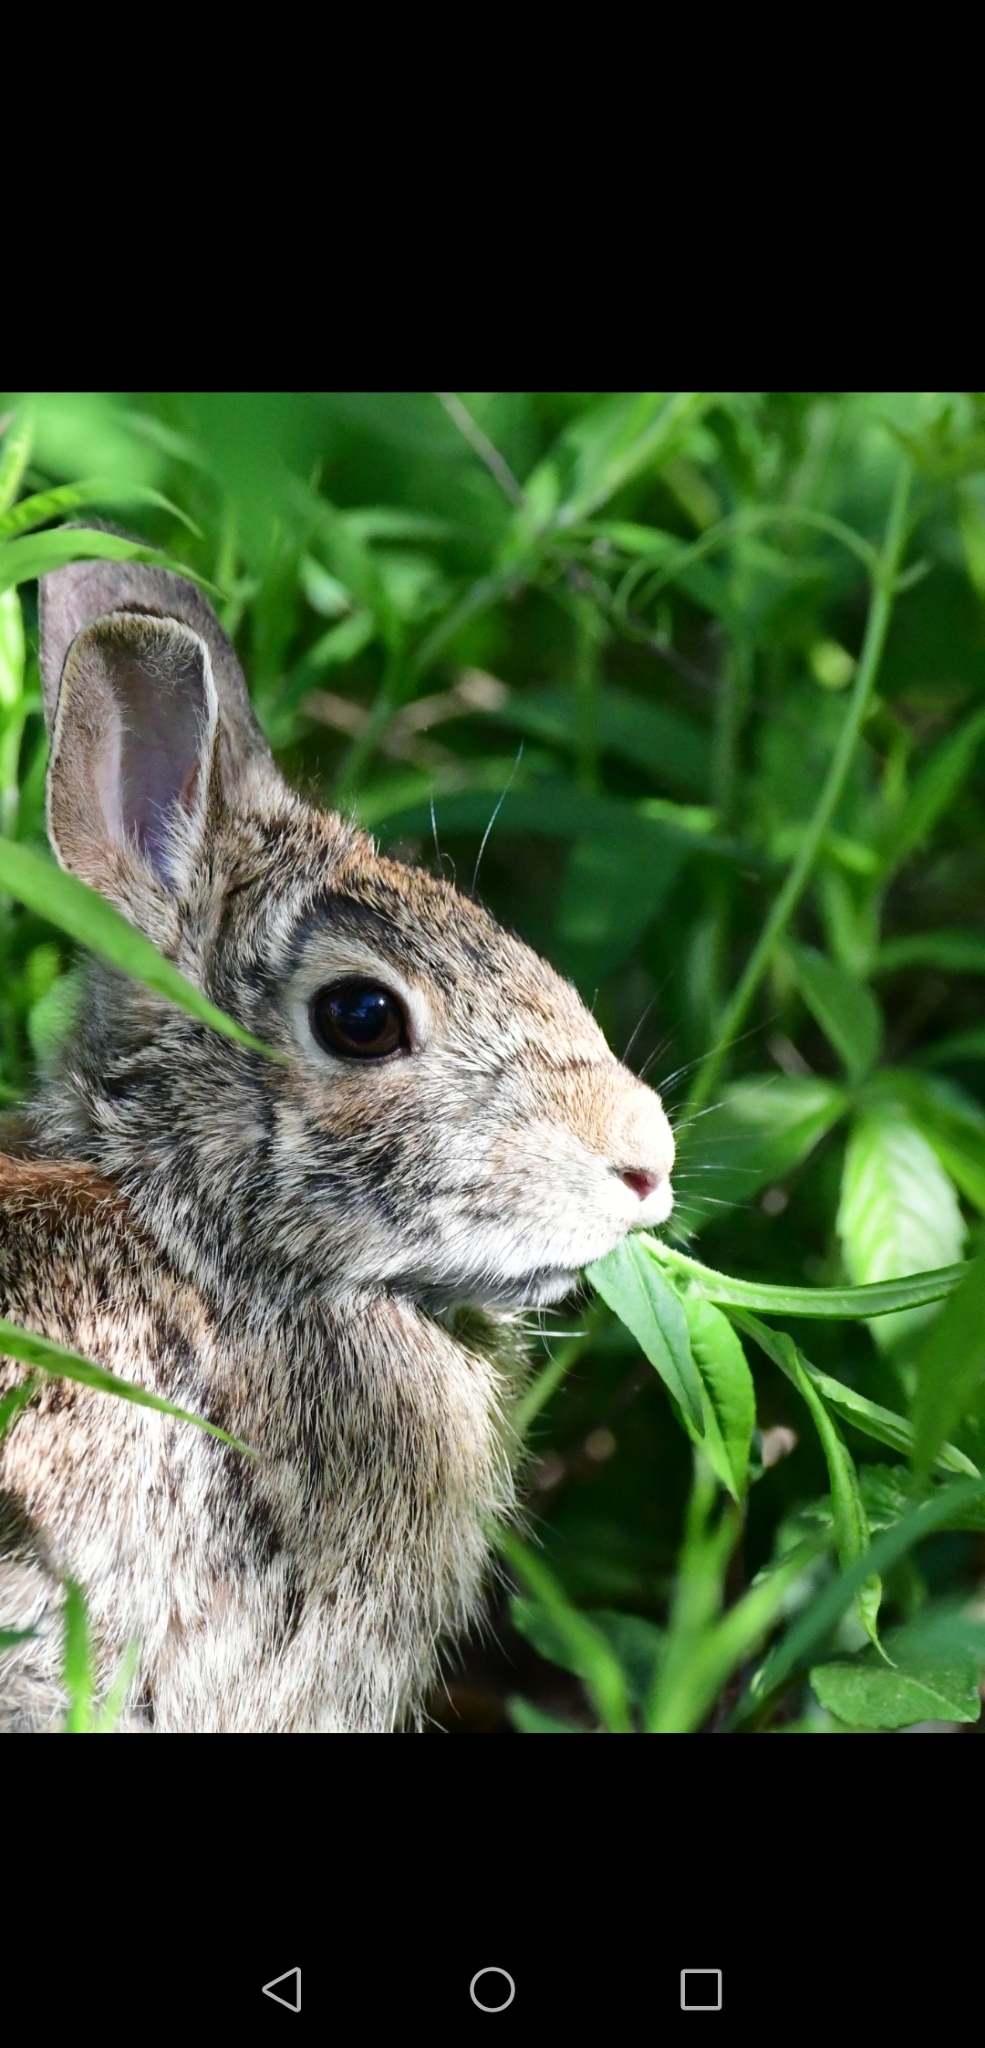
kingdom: Animalia
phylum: Chordata
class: Mammalia
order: Lagomorpha
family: Leporidae
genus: Sylvilagus
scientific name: Sylvilagus floridanus
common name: Eastern cottontail
